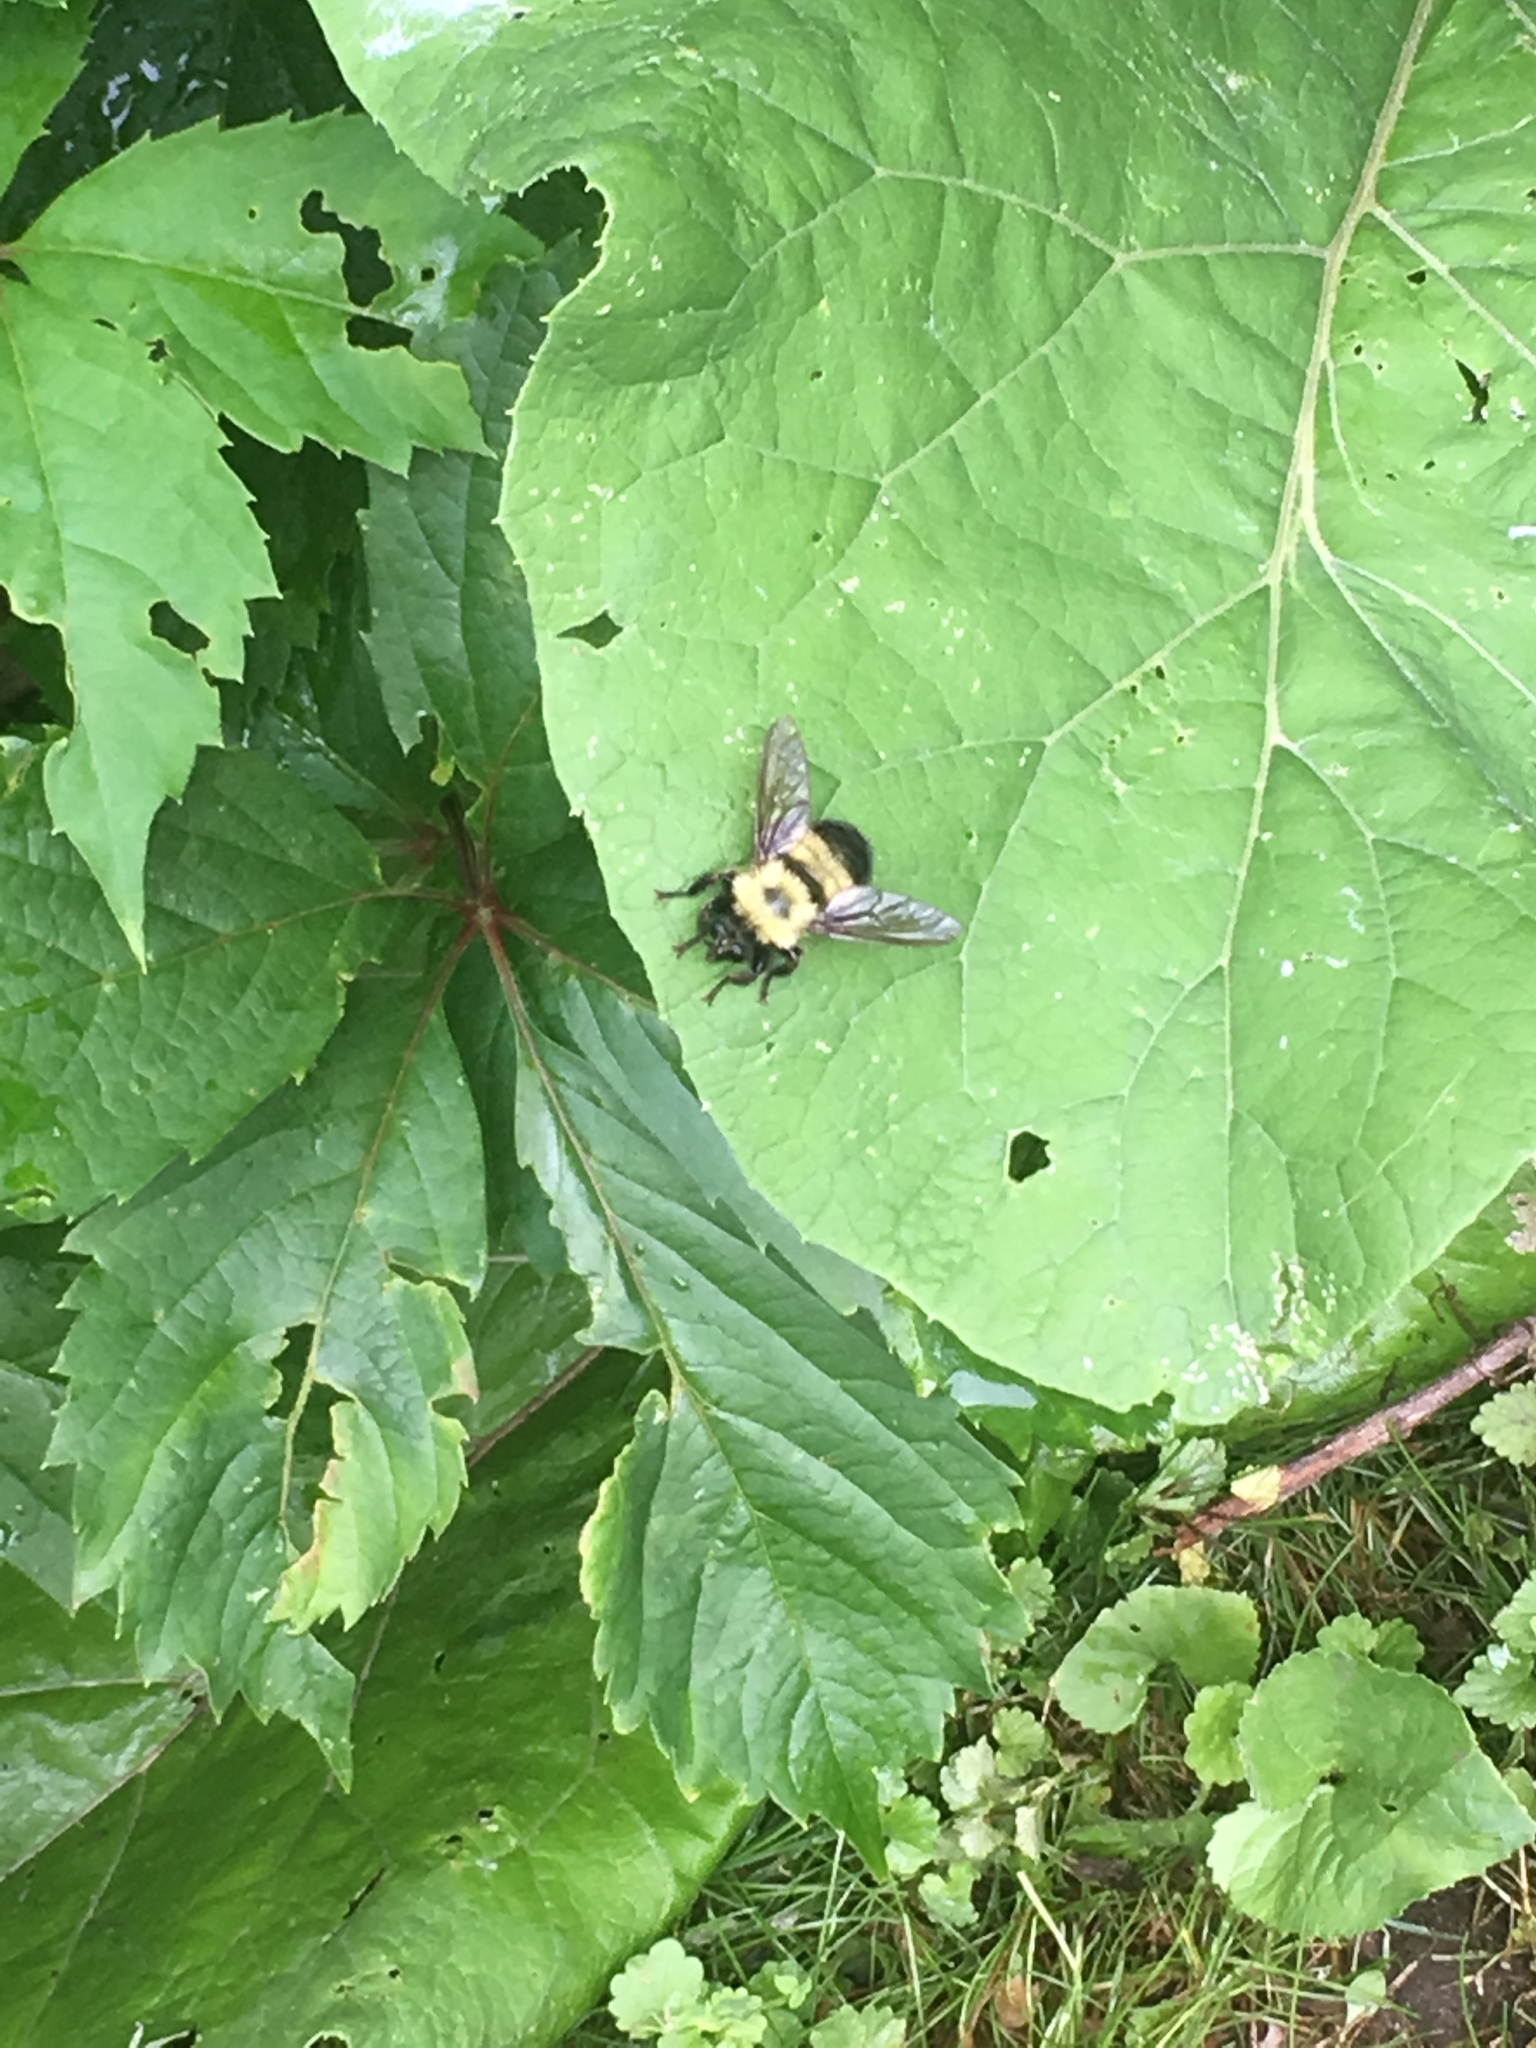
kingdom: Animalia
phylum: Arthropoda
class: Insecta
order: Diptera
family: Asilidae
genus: Laphria
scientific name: Laphria thoracica
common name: Bumble bee mimic robber fly
